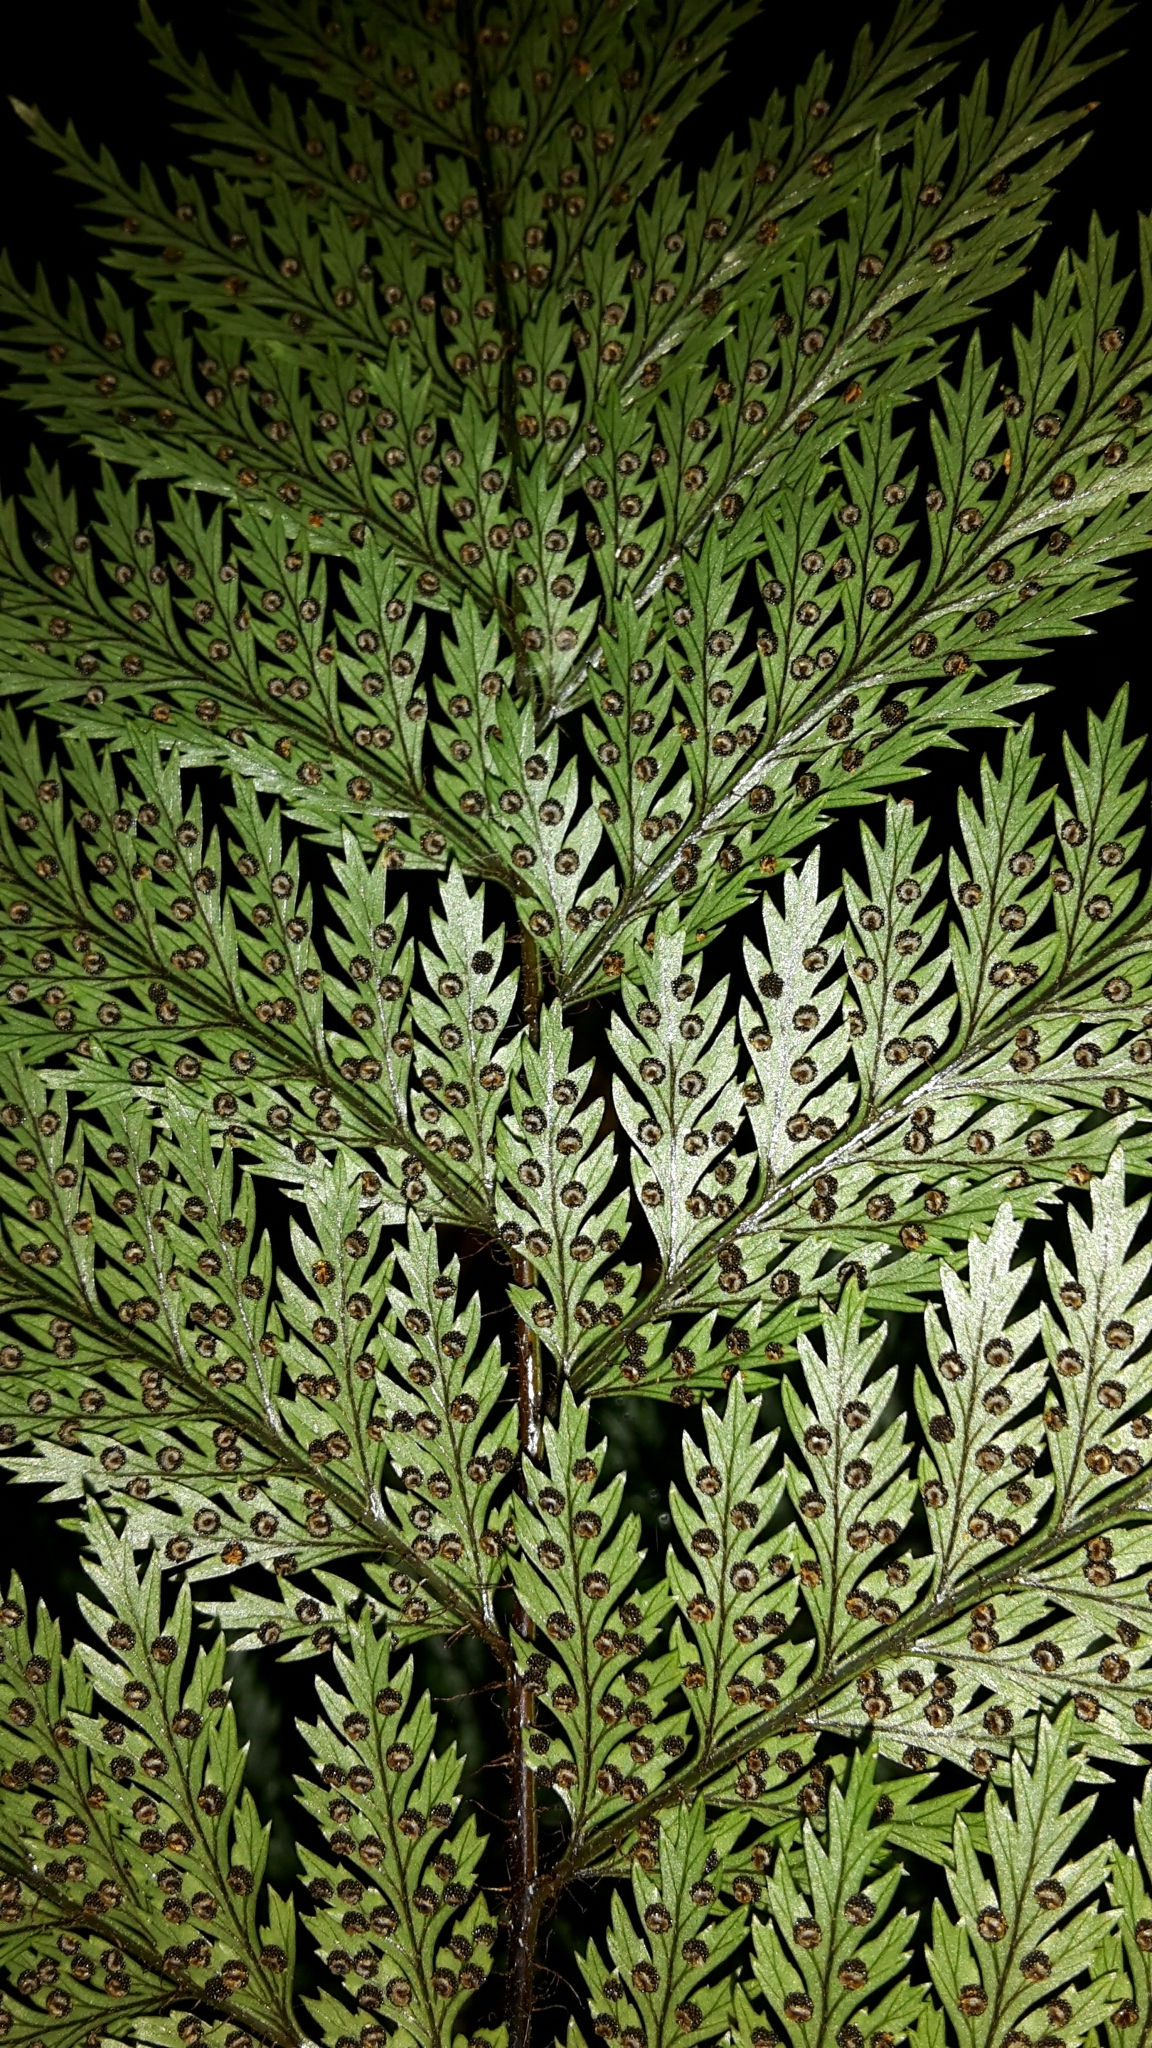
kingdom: Plantae
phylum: Tracheophyta
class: Polypodiopsida
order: Polypodiales
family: Dryopteridaceae
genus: Lastreopsis
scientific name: Lastreopsis hispida
